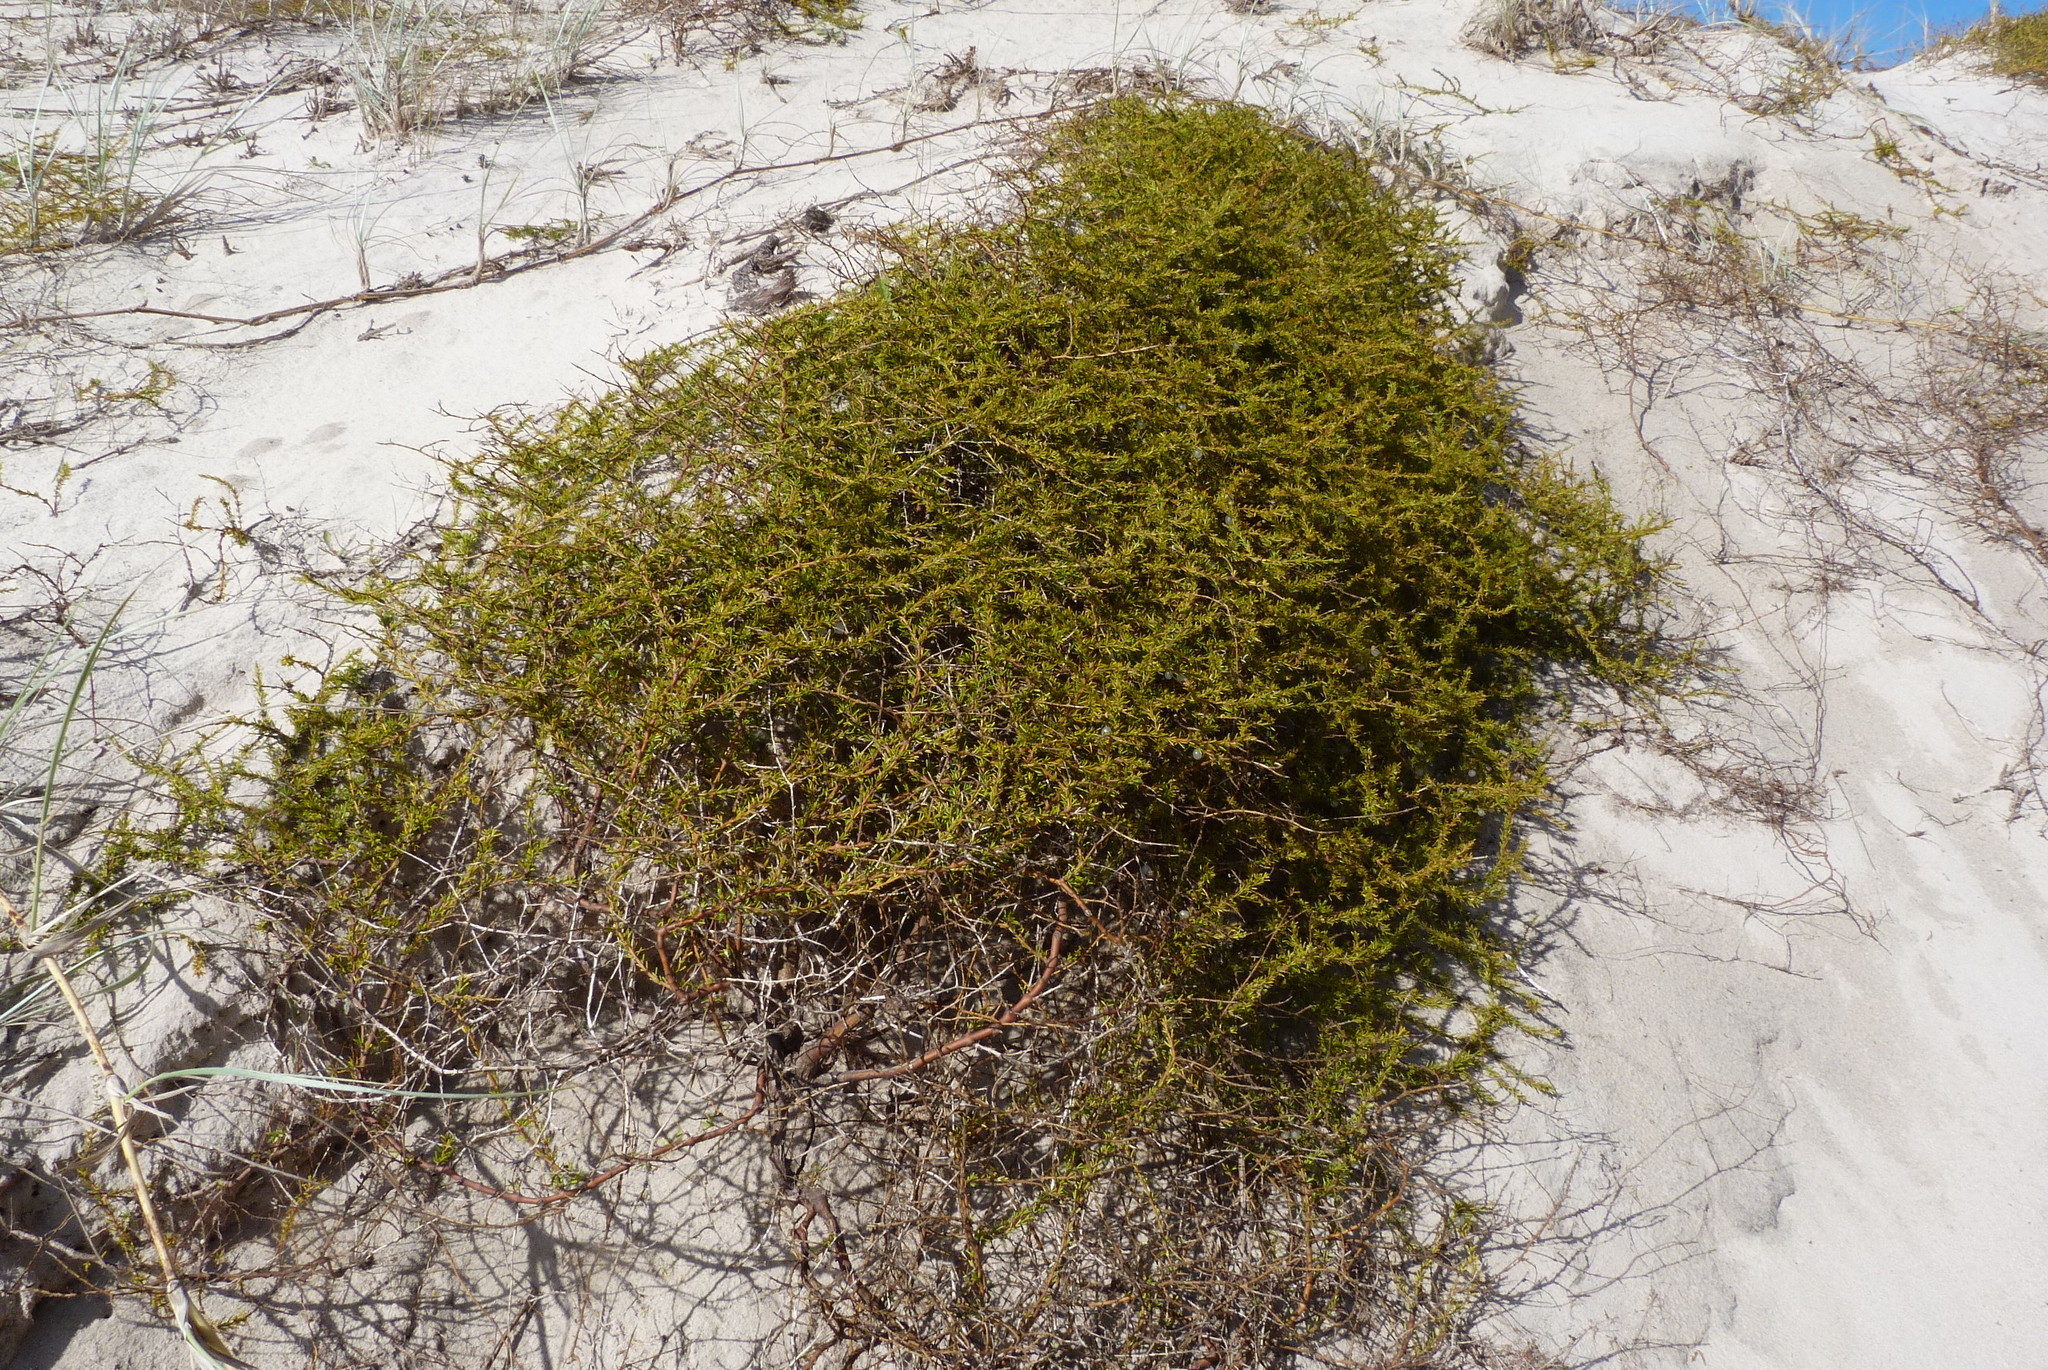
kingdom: Plantae
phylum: Tracheophyta
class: Magnoliopsida
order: Gentianales
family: Rubiaceae
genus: Coprosma
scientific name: Coprosma acerosa
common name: Sand coprosma
